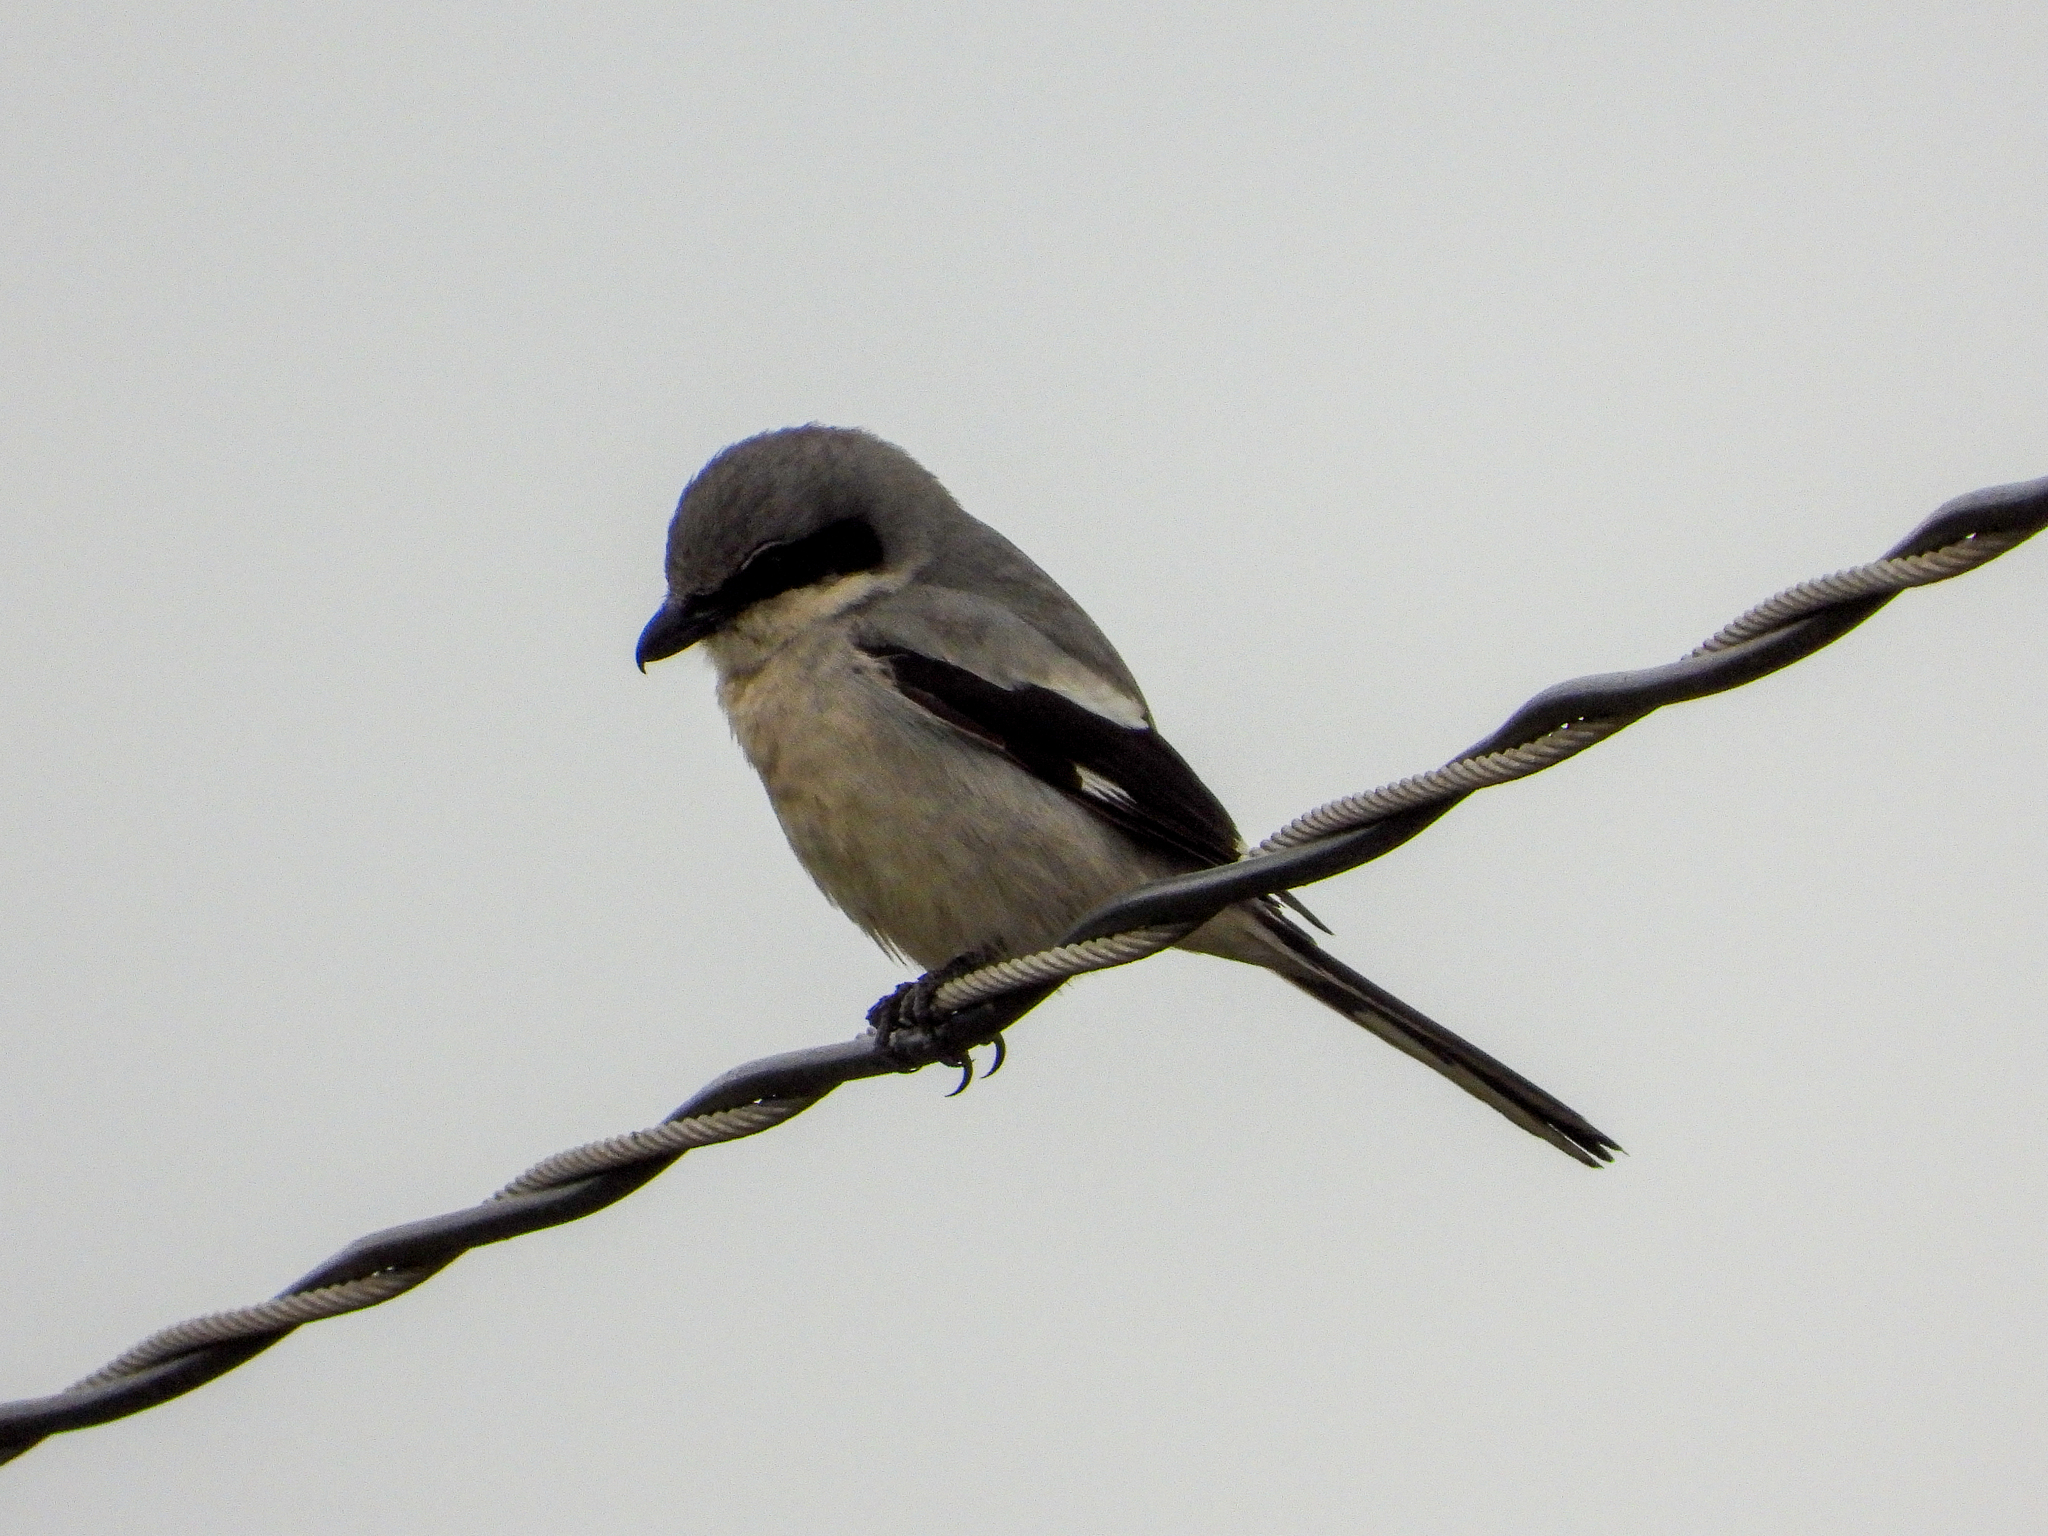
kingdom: Animalia
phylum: Chordata
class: Aves
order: Passeriformes
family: Laniidae
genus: Lanius
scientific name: Lanius ludovicianus
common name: Loggerhead shrike
